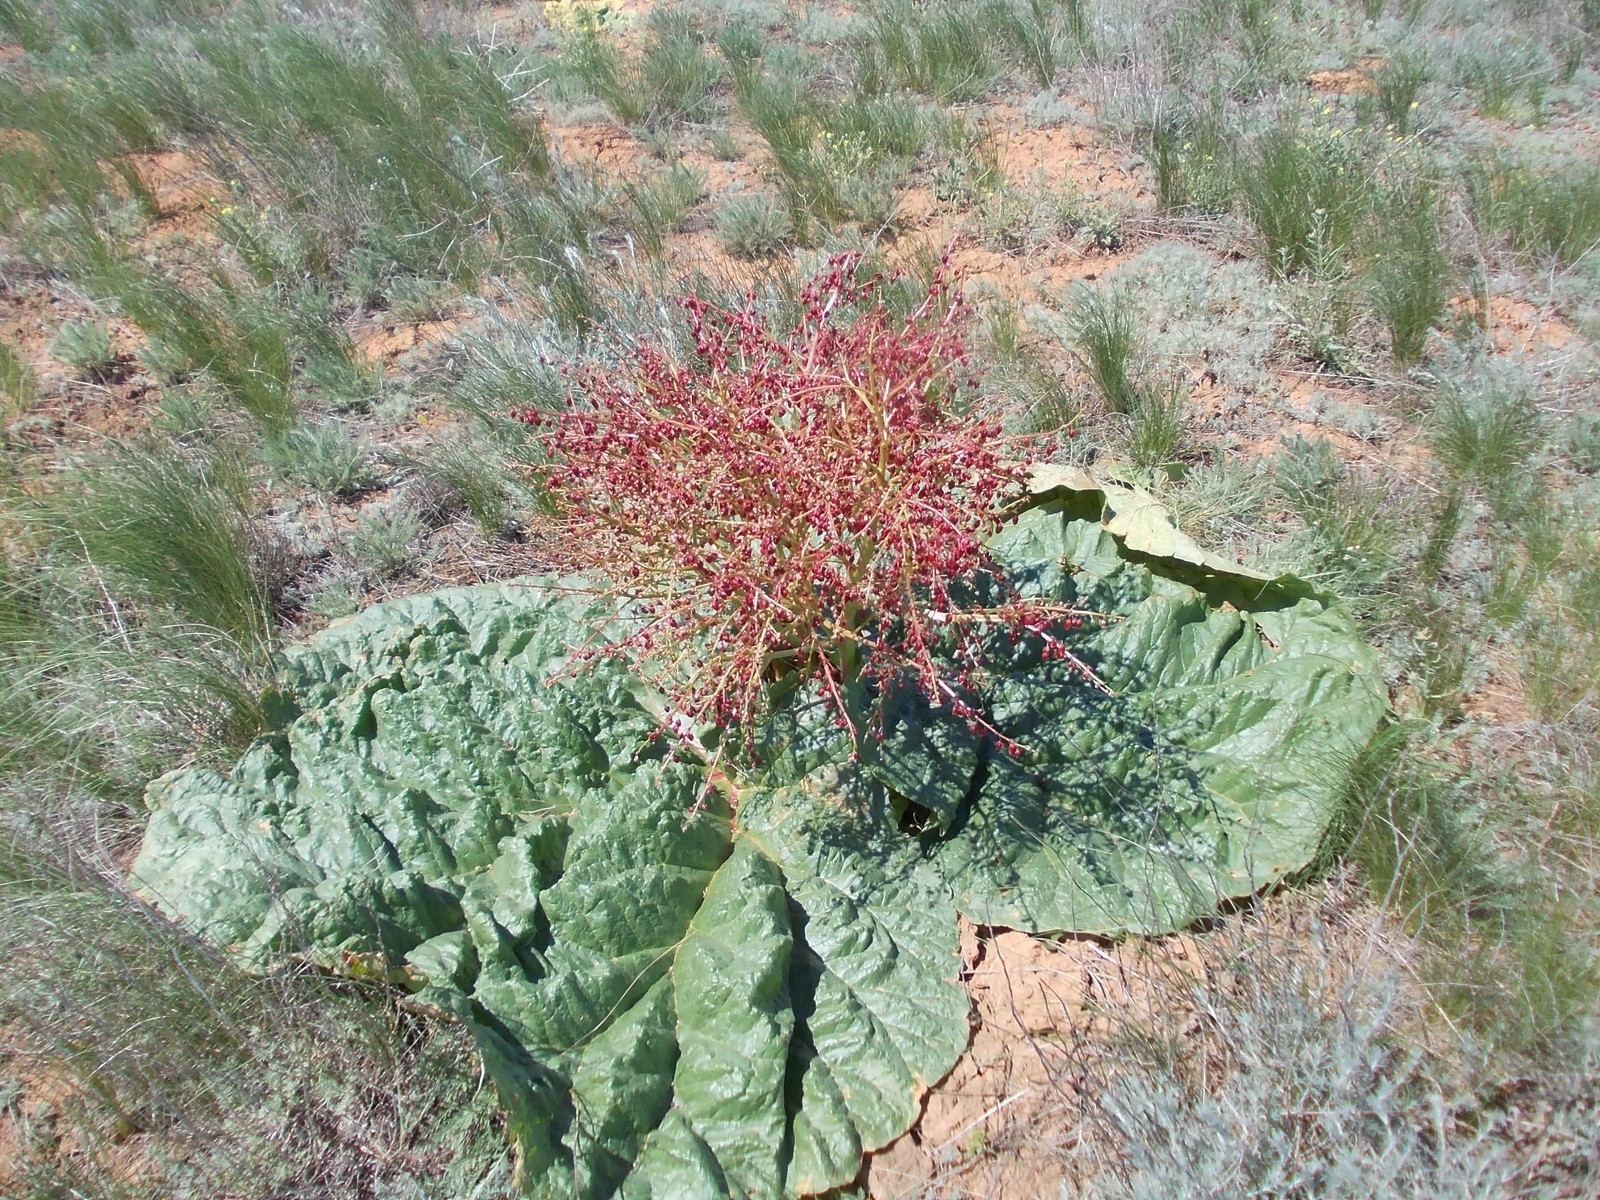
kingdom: Plantae
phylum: Tracheophyta
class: Magnoliopsida
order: Caryophyllales
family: Polygonaceae
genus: Rheum
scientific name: Rheum tataricum
